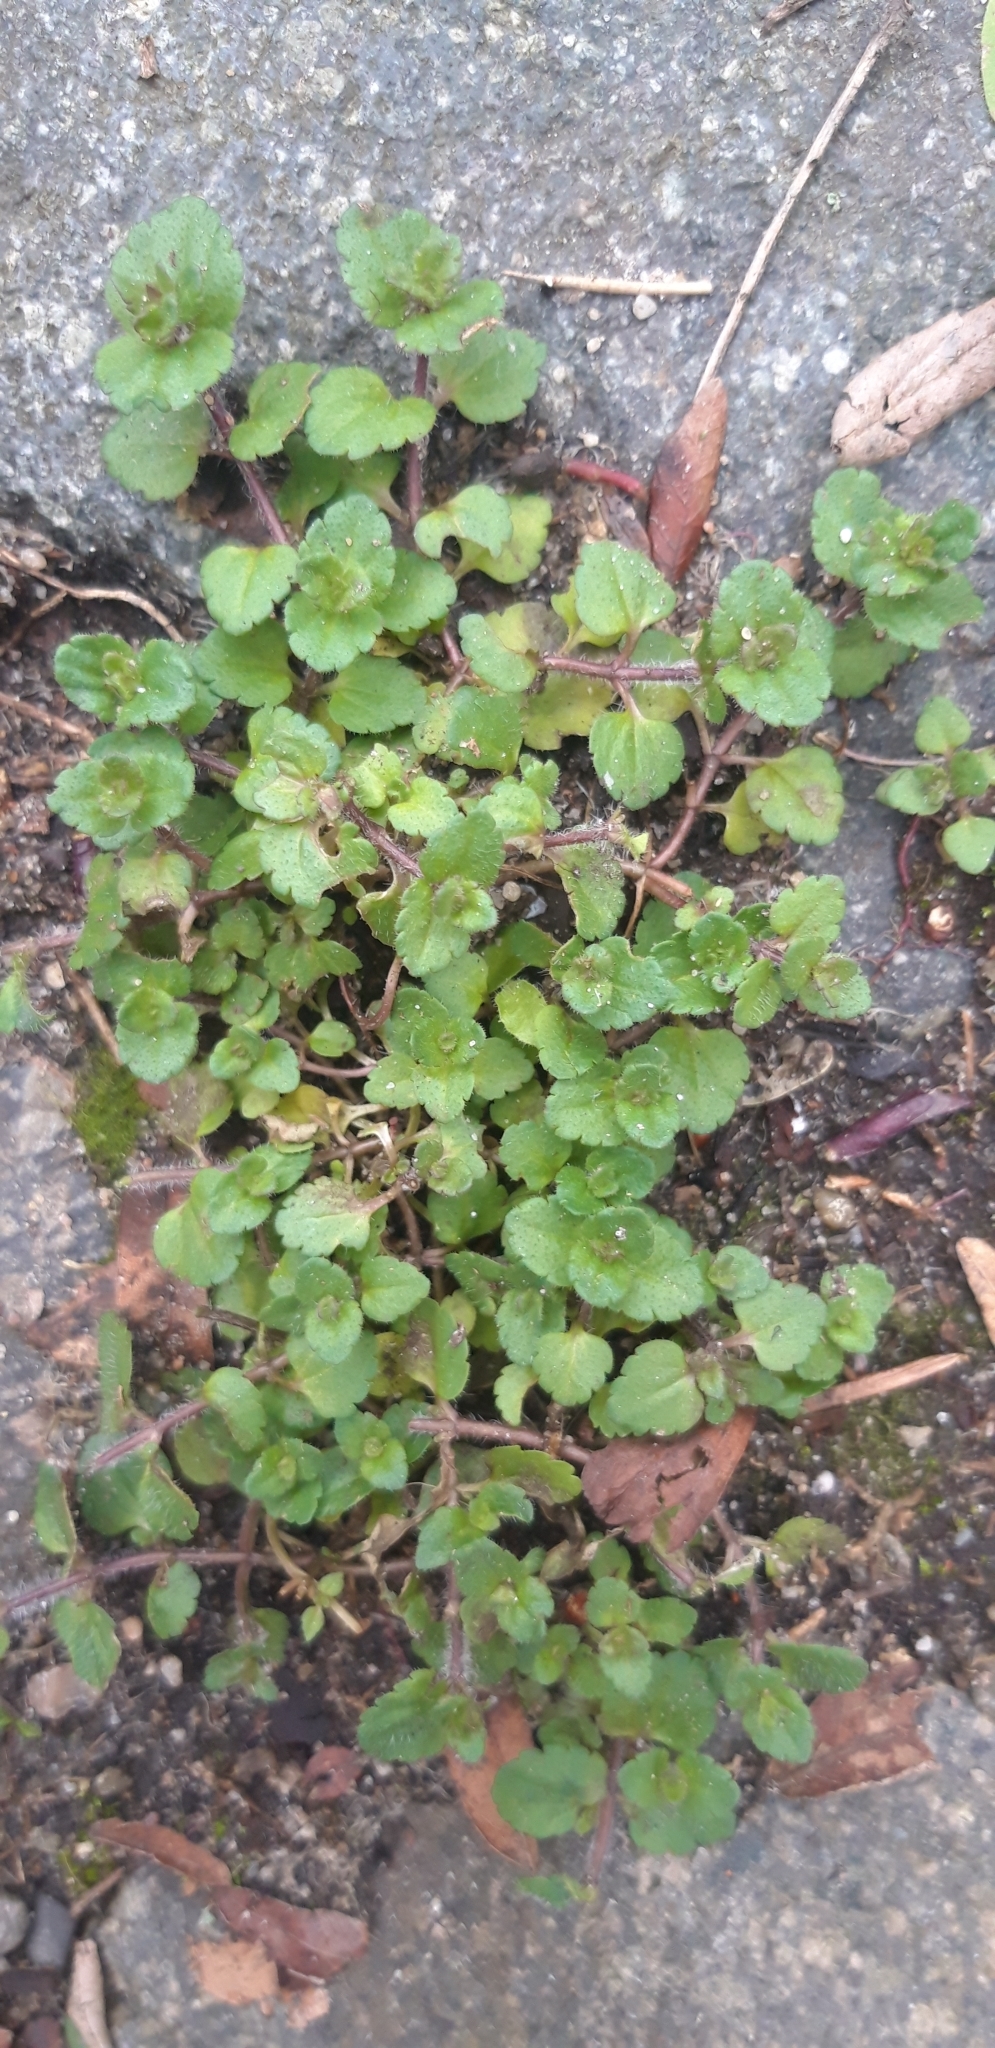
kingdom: Plantae
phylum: Tracheophyta
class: Magnoliopsida
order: Lamiales
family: Plantaginaceae
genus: Veronica
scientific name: Veronica arvensis
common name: Corn speedwell
